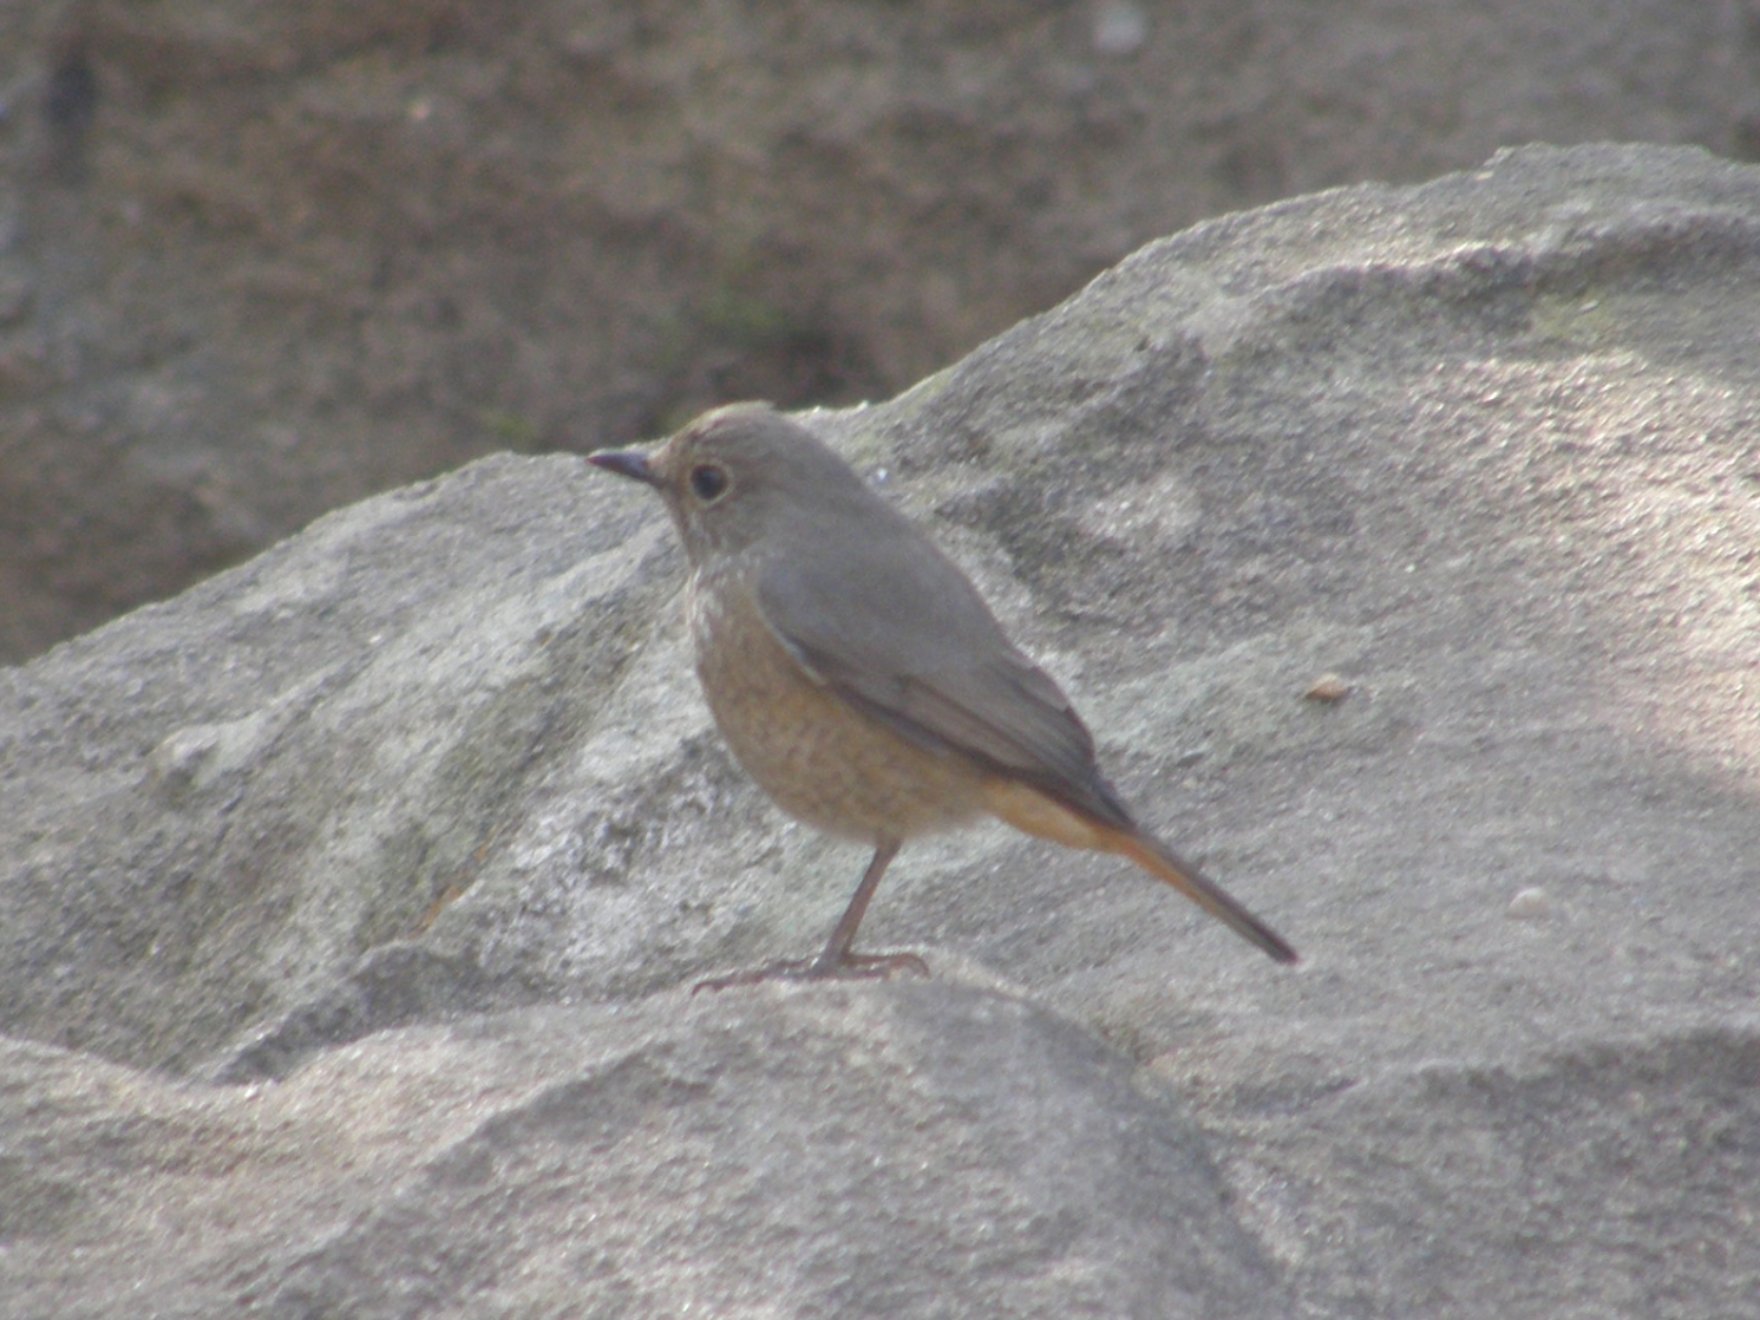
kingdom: Animalia
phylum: Chordata
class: Aves
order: Passeriformes
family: Muscicapidae
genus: Monticola
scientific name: Monticola sharpei
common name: Forest rock-thrush
